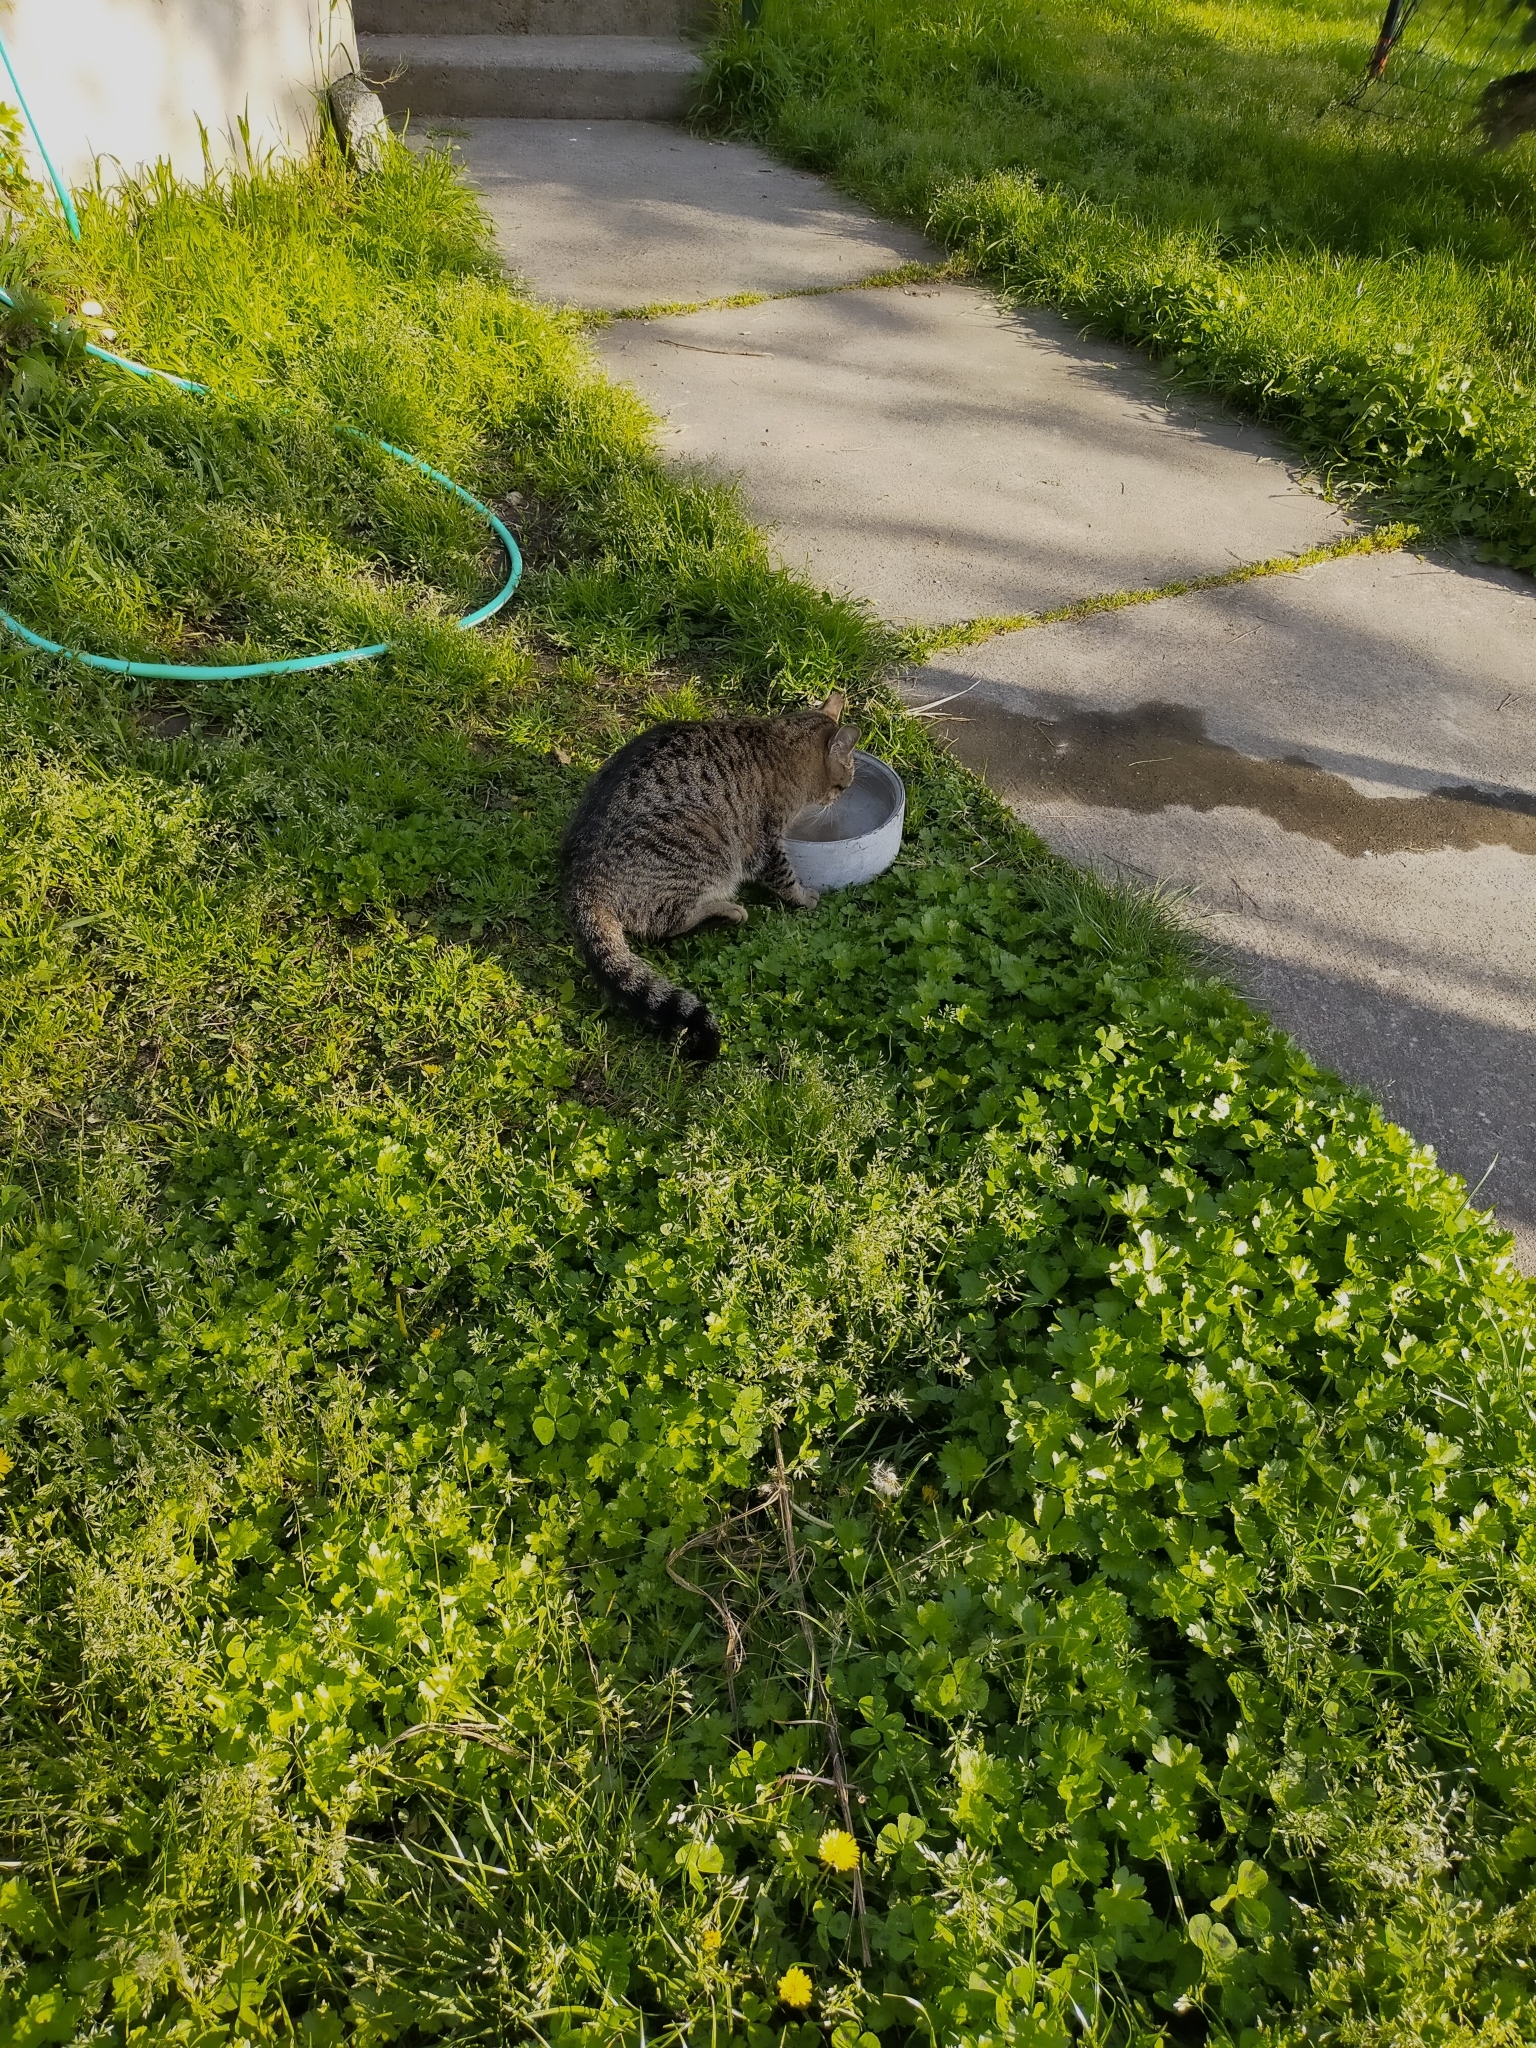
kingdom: Animalia
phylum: Chordata
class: Mammalia
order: Carnivora
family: Felidae
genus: Felis
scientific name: Felis catus
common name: Domestic cat
